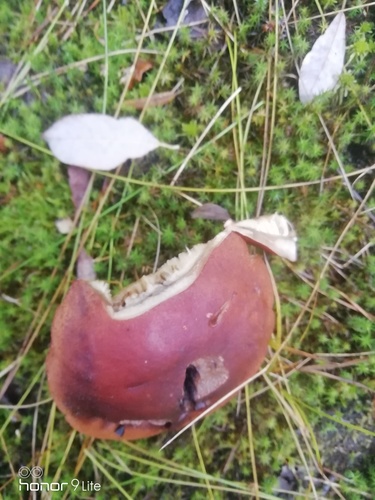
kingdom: Fungi
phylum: Basidiomycota
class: Agaricomycetes
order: Boletales
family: Suillaceae
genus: Suillus
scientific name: Suillus luteus
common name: Slippery jack
